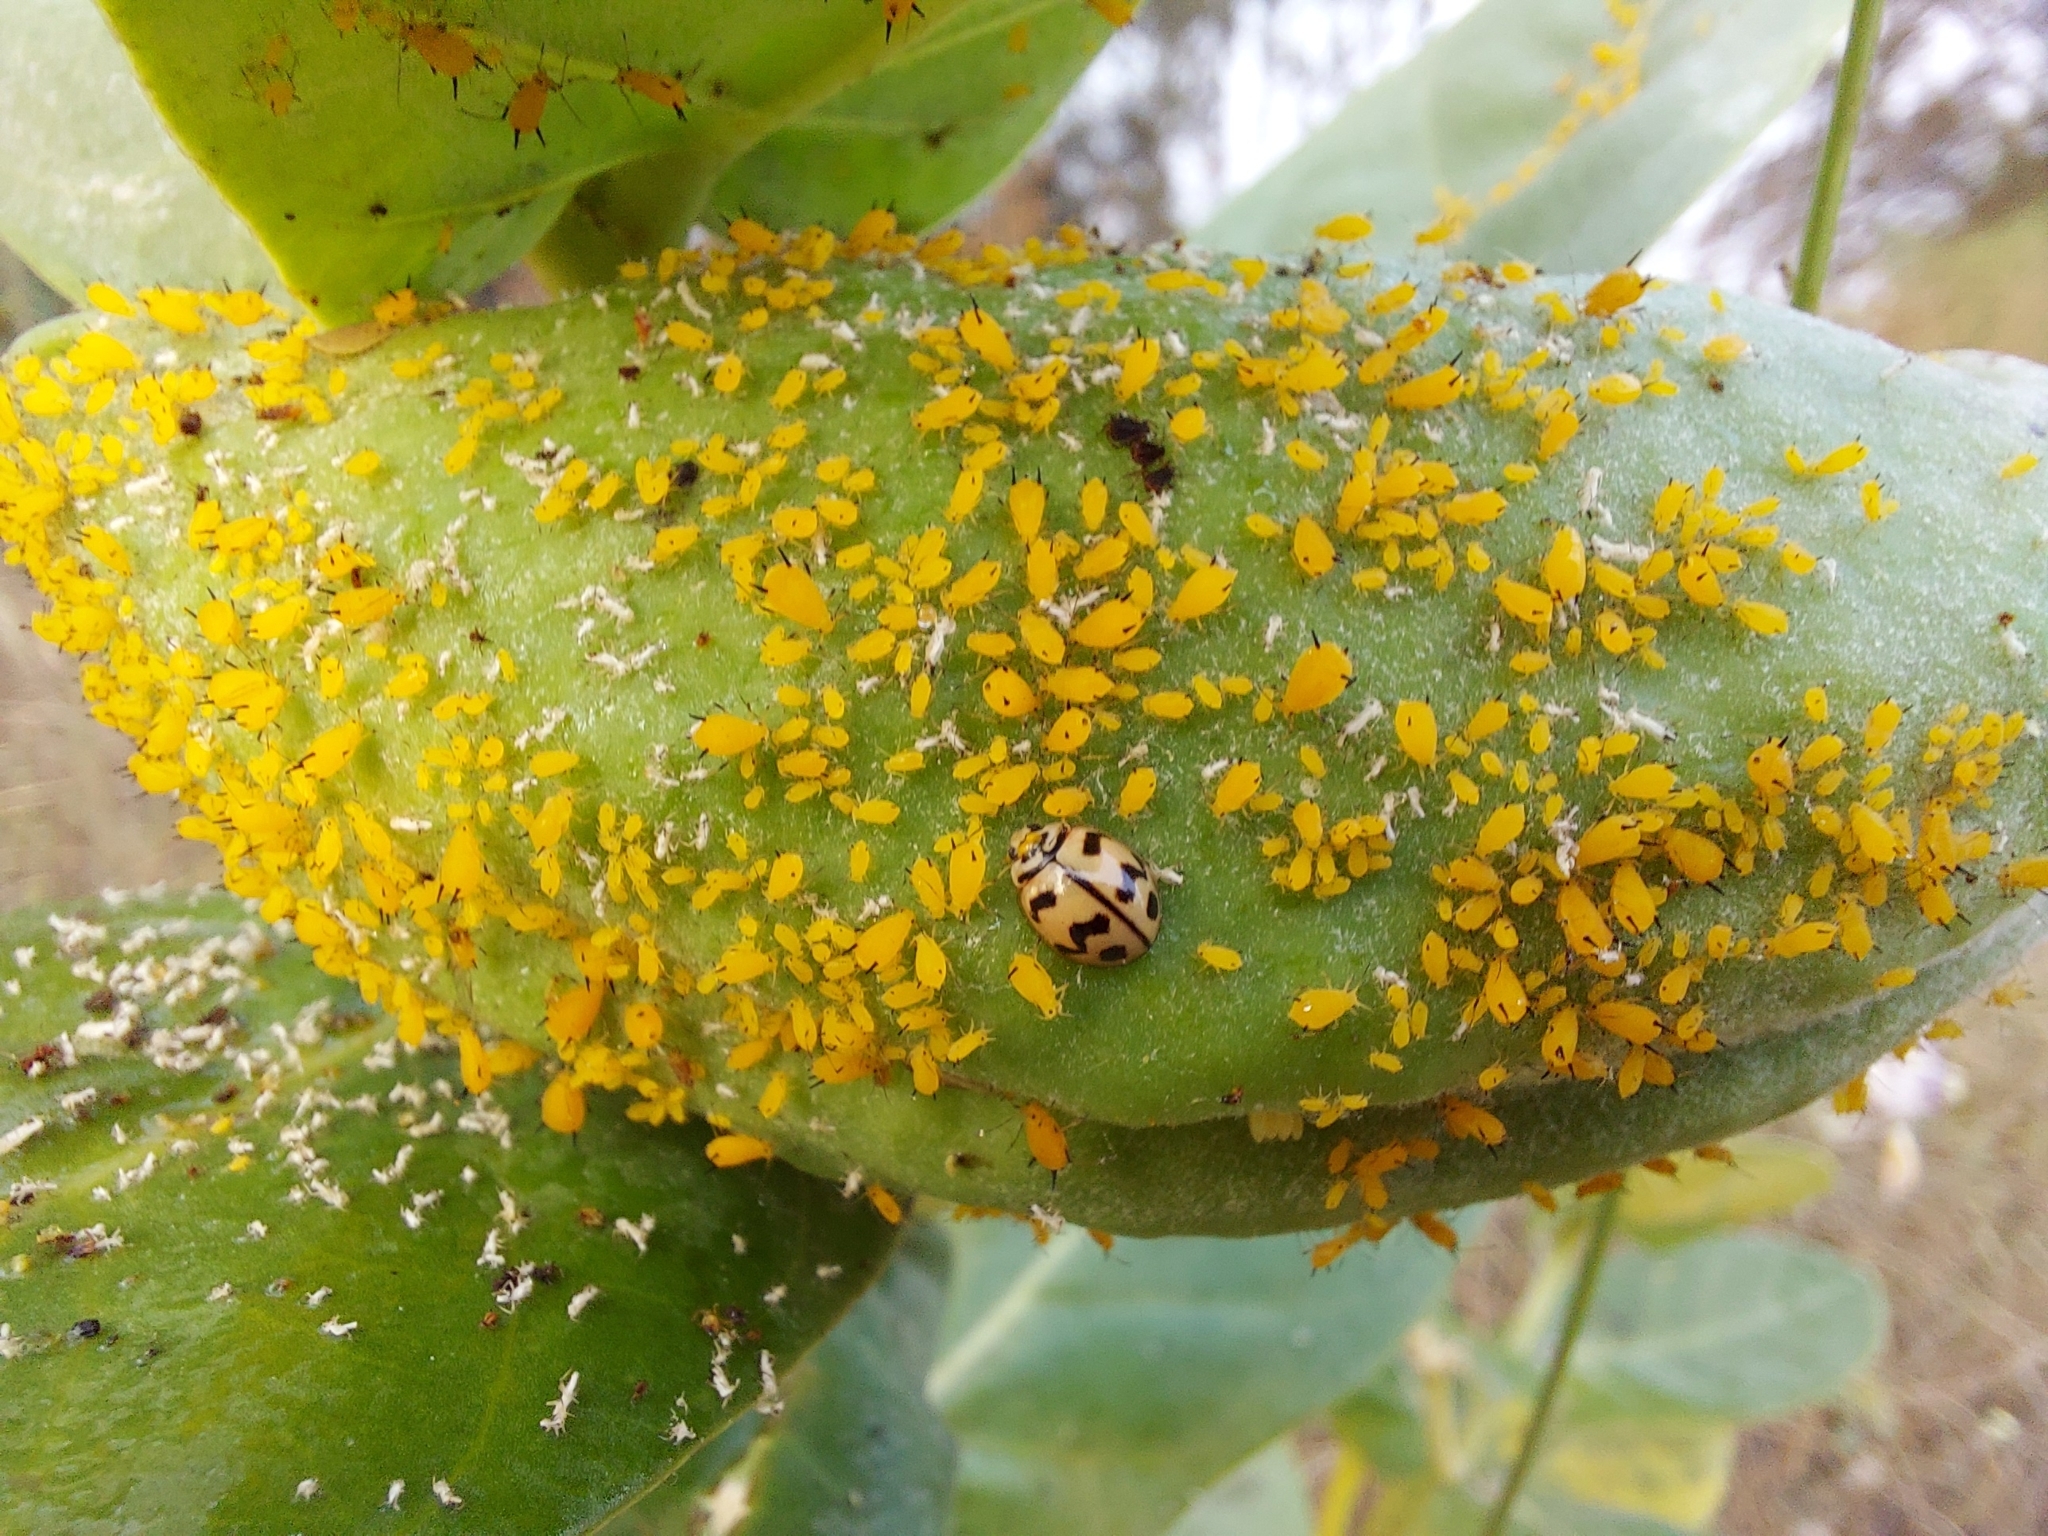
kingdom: Animalia
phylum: Arthropoda
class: Insecta
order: Hemiptera
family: Aphididae
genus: Aphis
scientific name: Aphis nerii
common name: Oleander aphid
